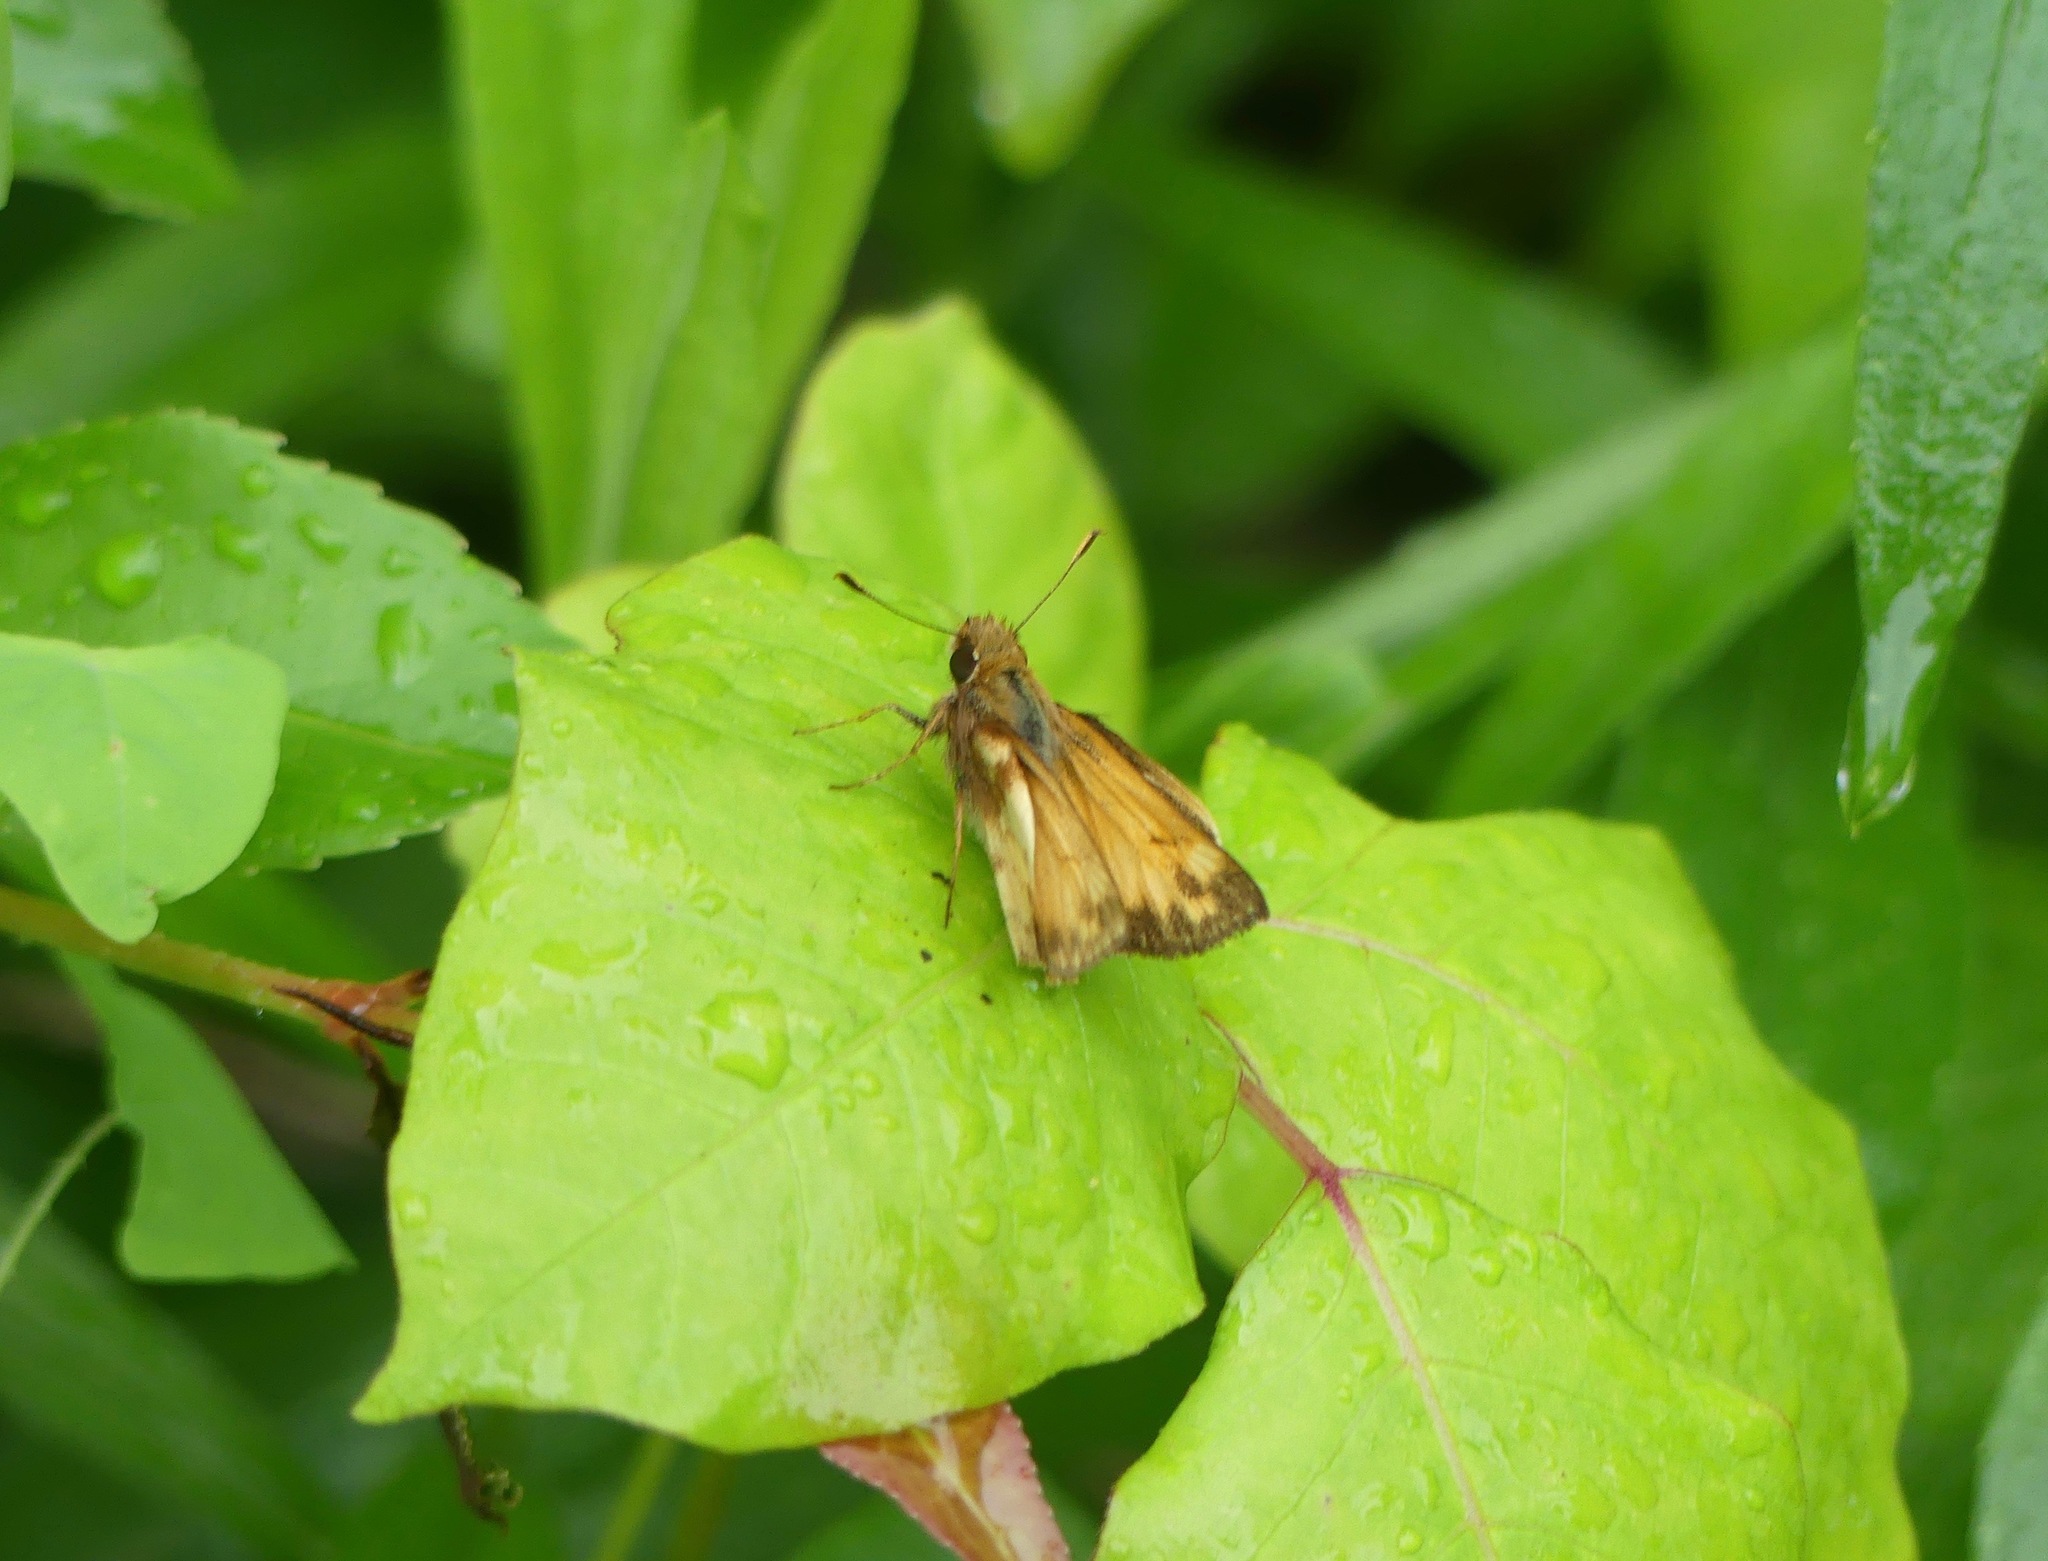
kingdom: Animalia
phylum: Arthropoda
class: Insecta
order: Lepidoptera
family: Hesperiidae
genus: Lon
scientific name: Lon zabulon
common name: Zabulon skipper
